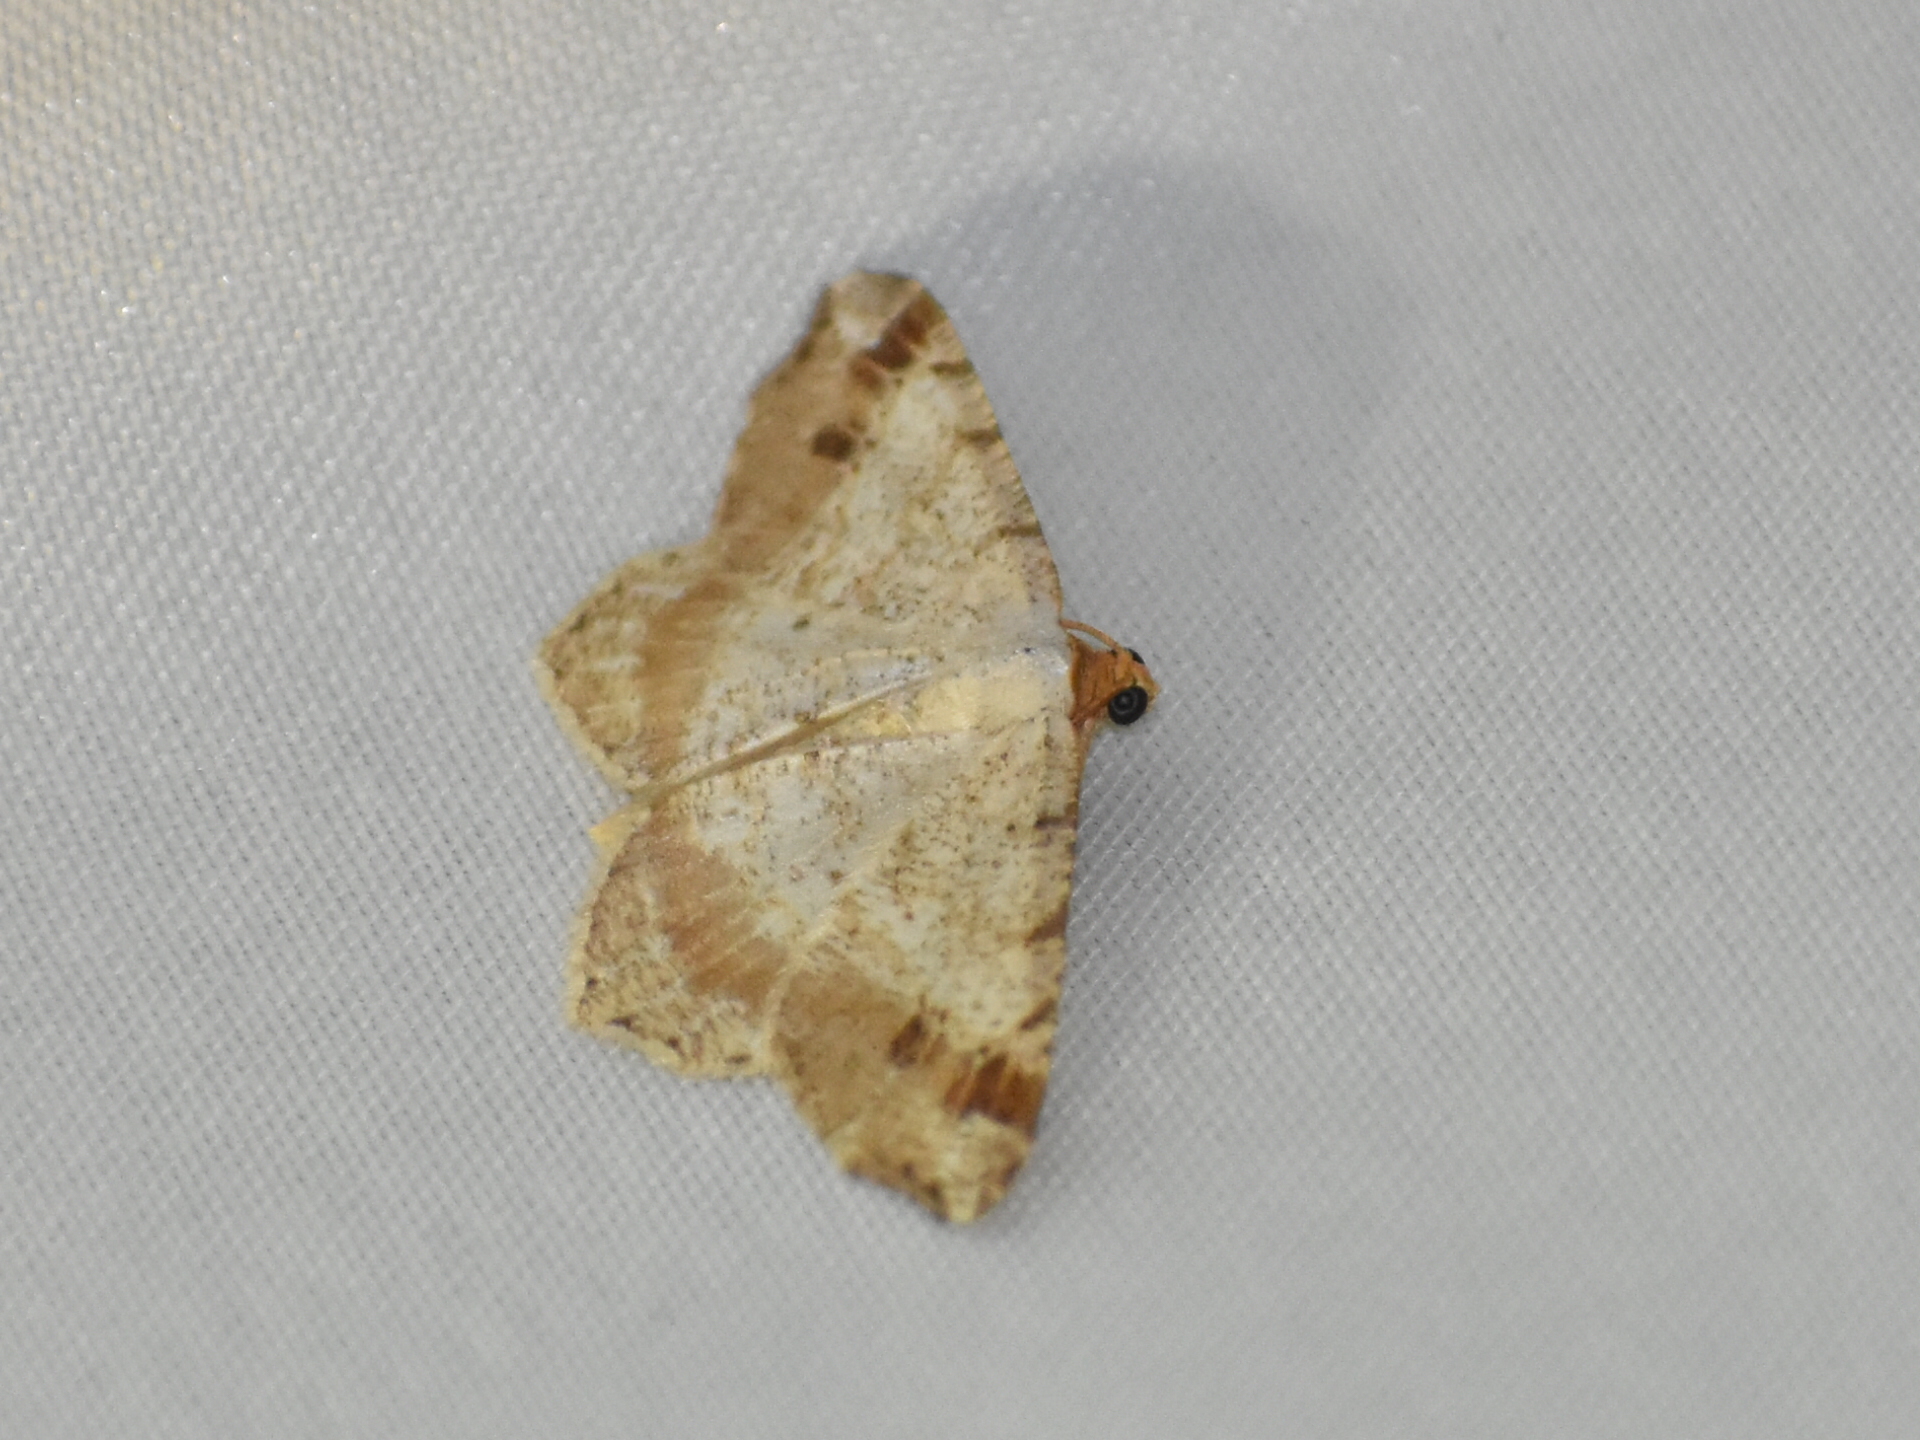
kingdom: Animalia
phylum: Arthropoda
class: Insecta
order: Lepidoptera
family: Geometridae
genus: Macaria
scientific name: Macaria bisignata
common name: Red-headed inchworm
